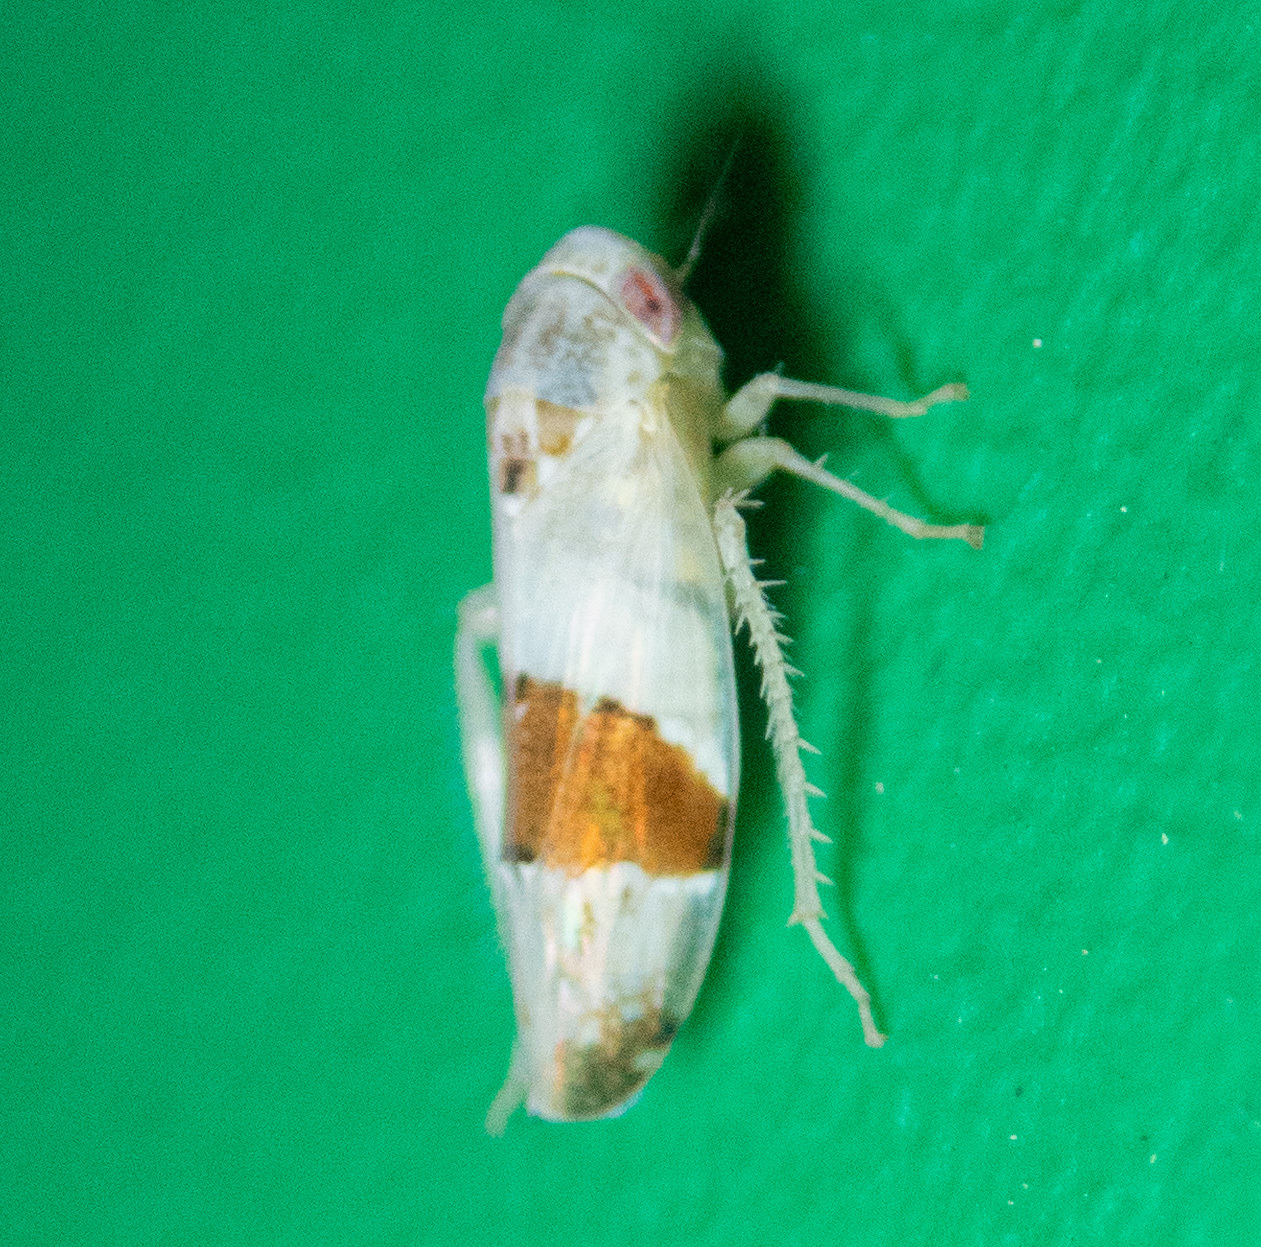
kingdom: Animalia
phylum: Arthropoda
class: Insecta
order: Hemiptera
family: Cicadellidae
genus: Norvellina
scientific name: Norvellina seminuda
